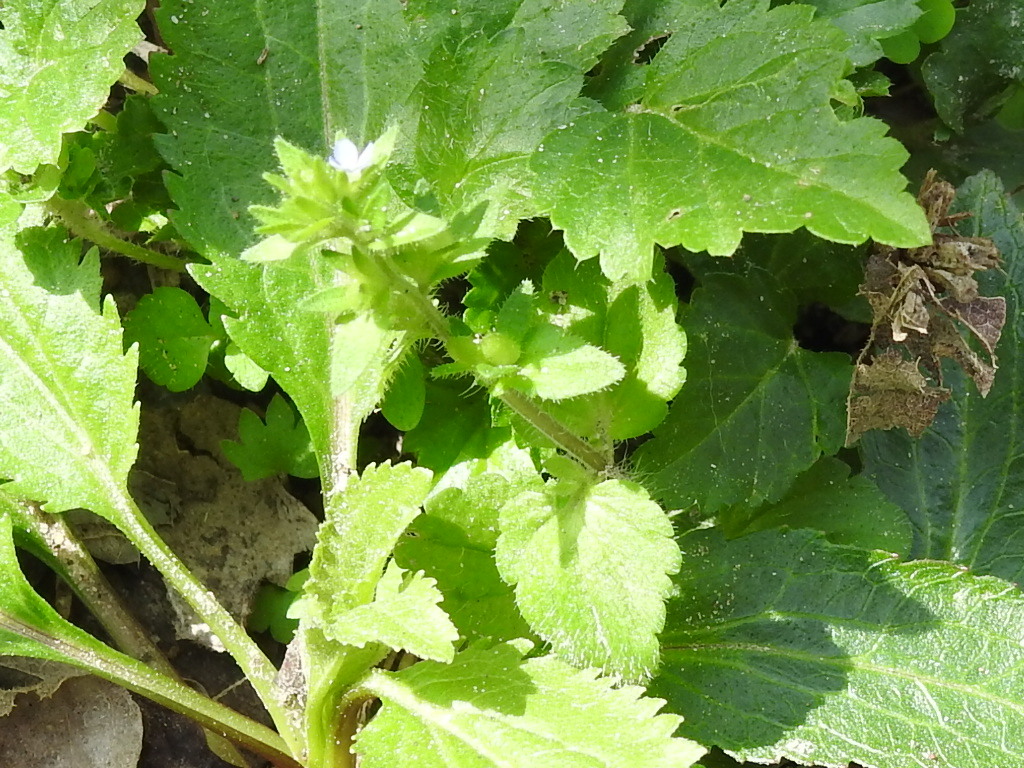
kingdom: Plantae
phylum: Tracheophyta
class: Magnoliopsida
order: Lamiales
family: Plantaginaceae
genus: Veronica
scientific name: Veronica arvensis
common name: Corn speedwell
